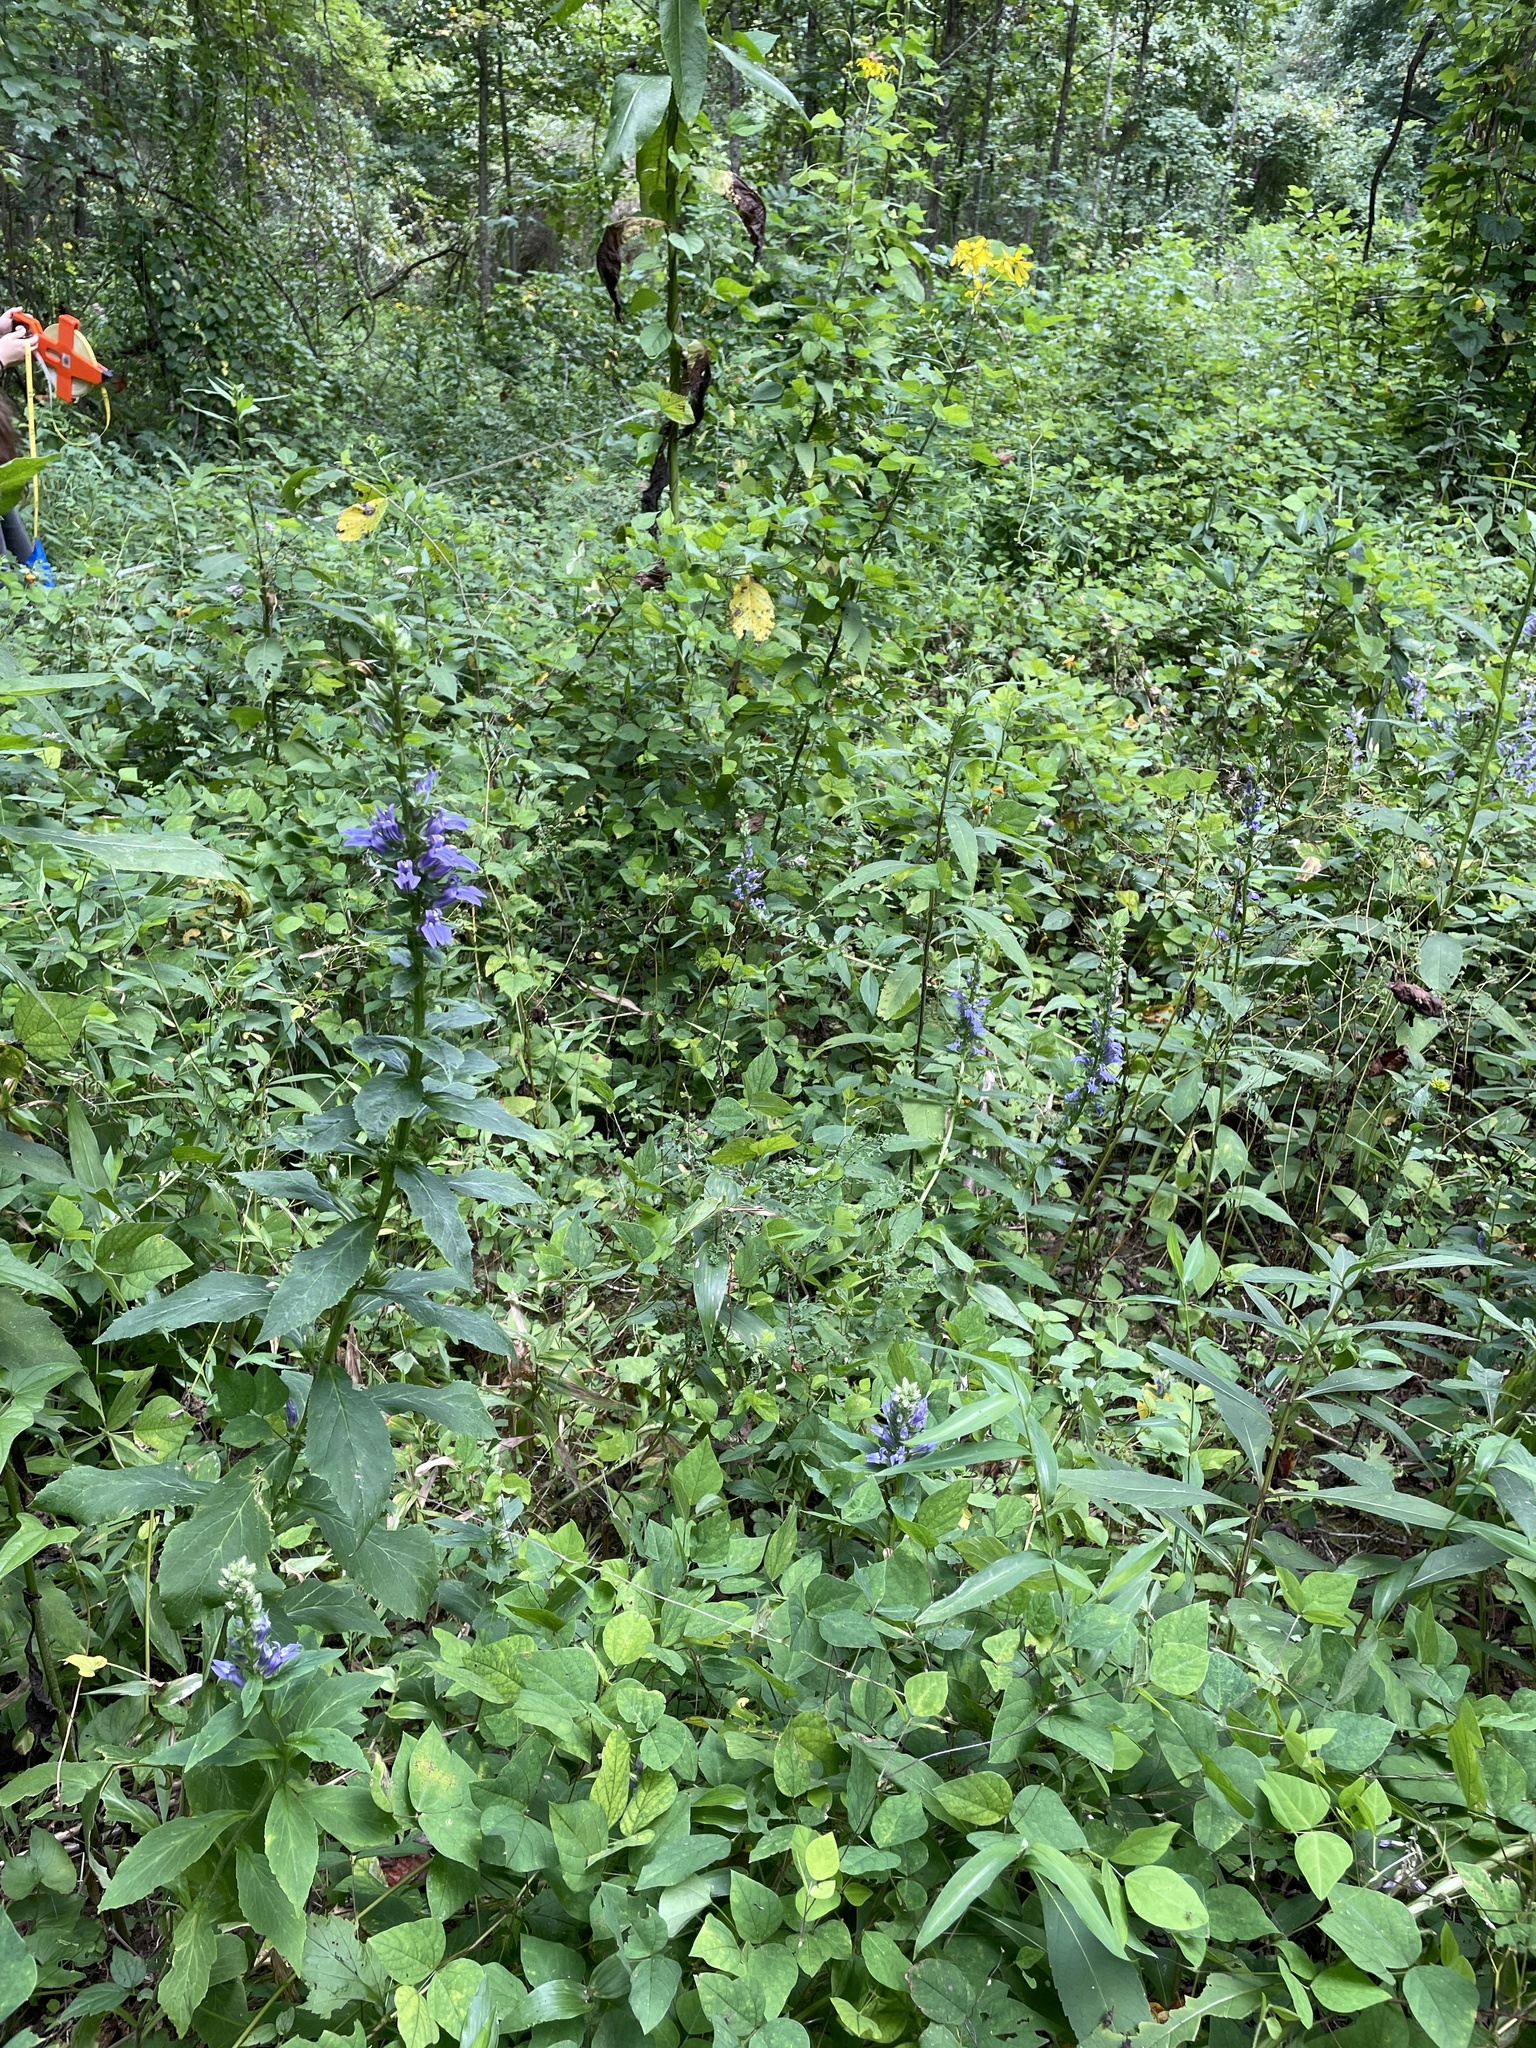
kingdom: Plantae
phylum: Tracheophyta
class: Magnoliopsida
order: Asterales
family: Campanulaceae
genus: Lobelia
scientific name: Lobelia siphilitica
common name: Great lobelia
